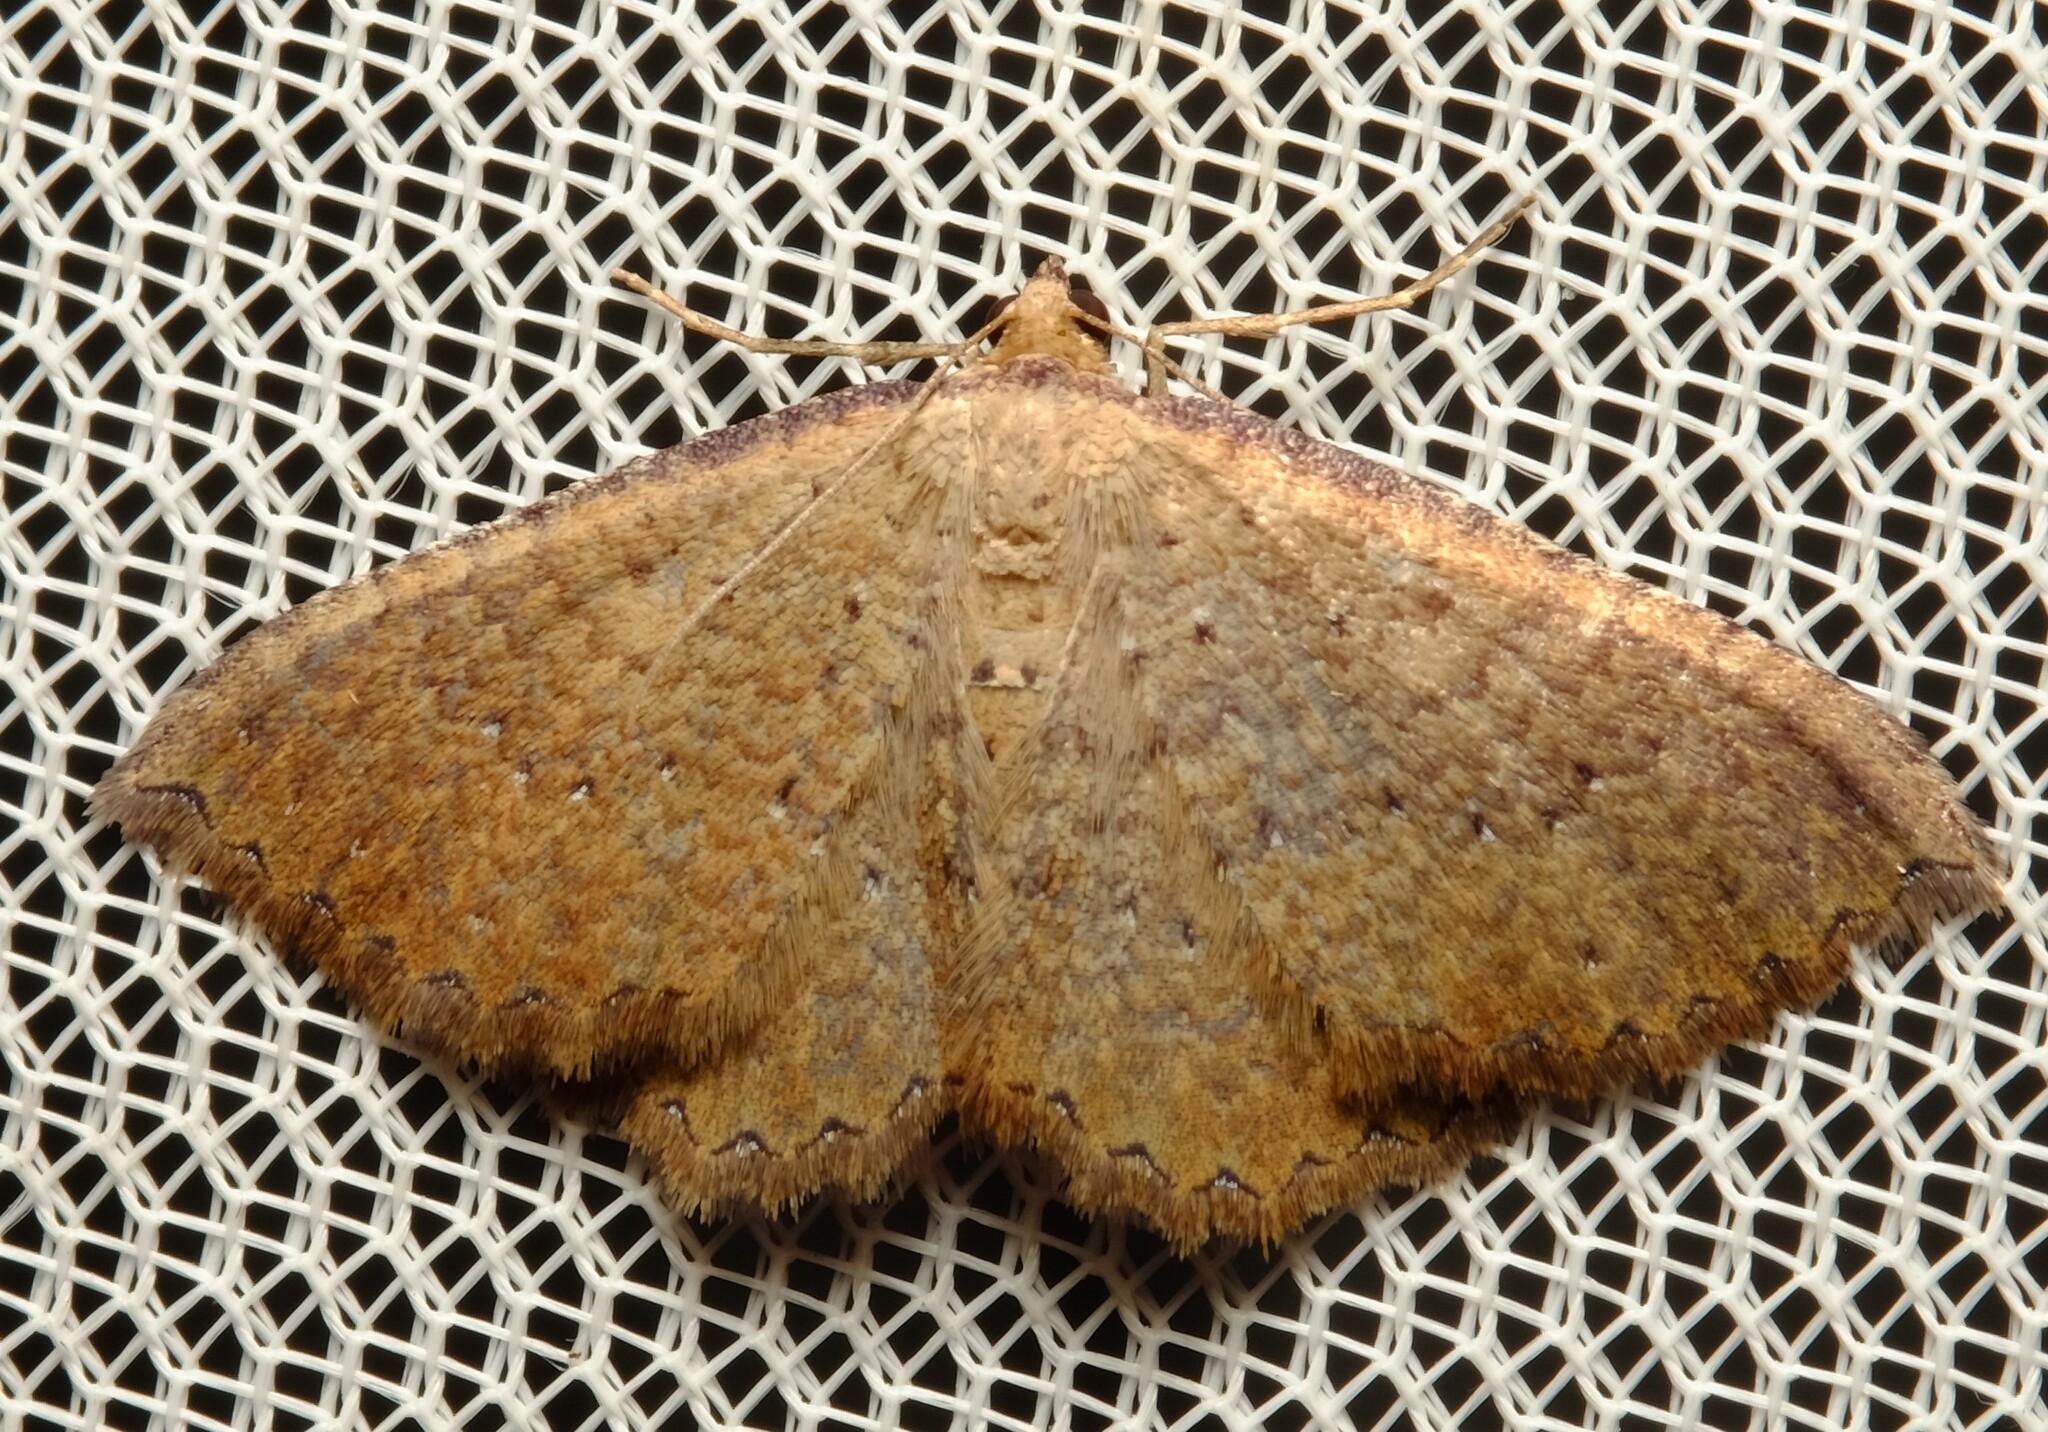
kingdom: Animalia
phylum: Arthropoda
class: Insecta
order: Lepidoptera
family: Geometridae
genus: Chrysolarentia
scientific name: Chrysolarentia microcyma
